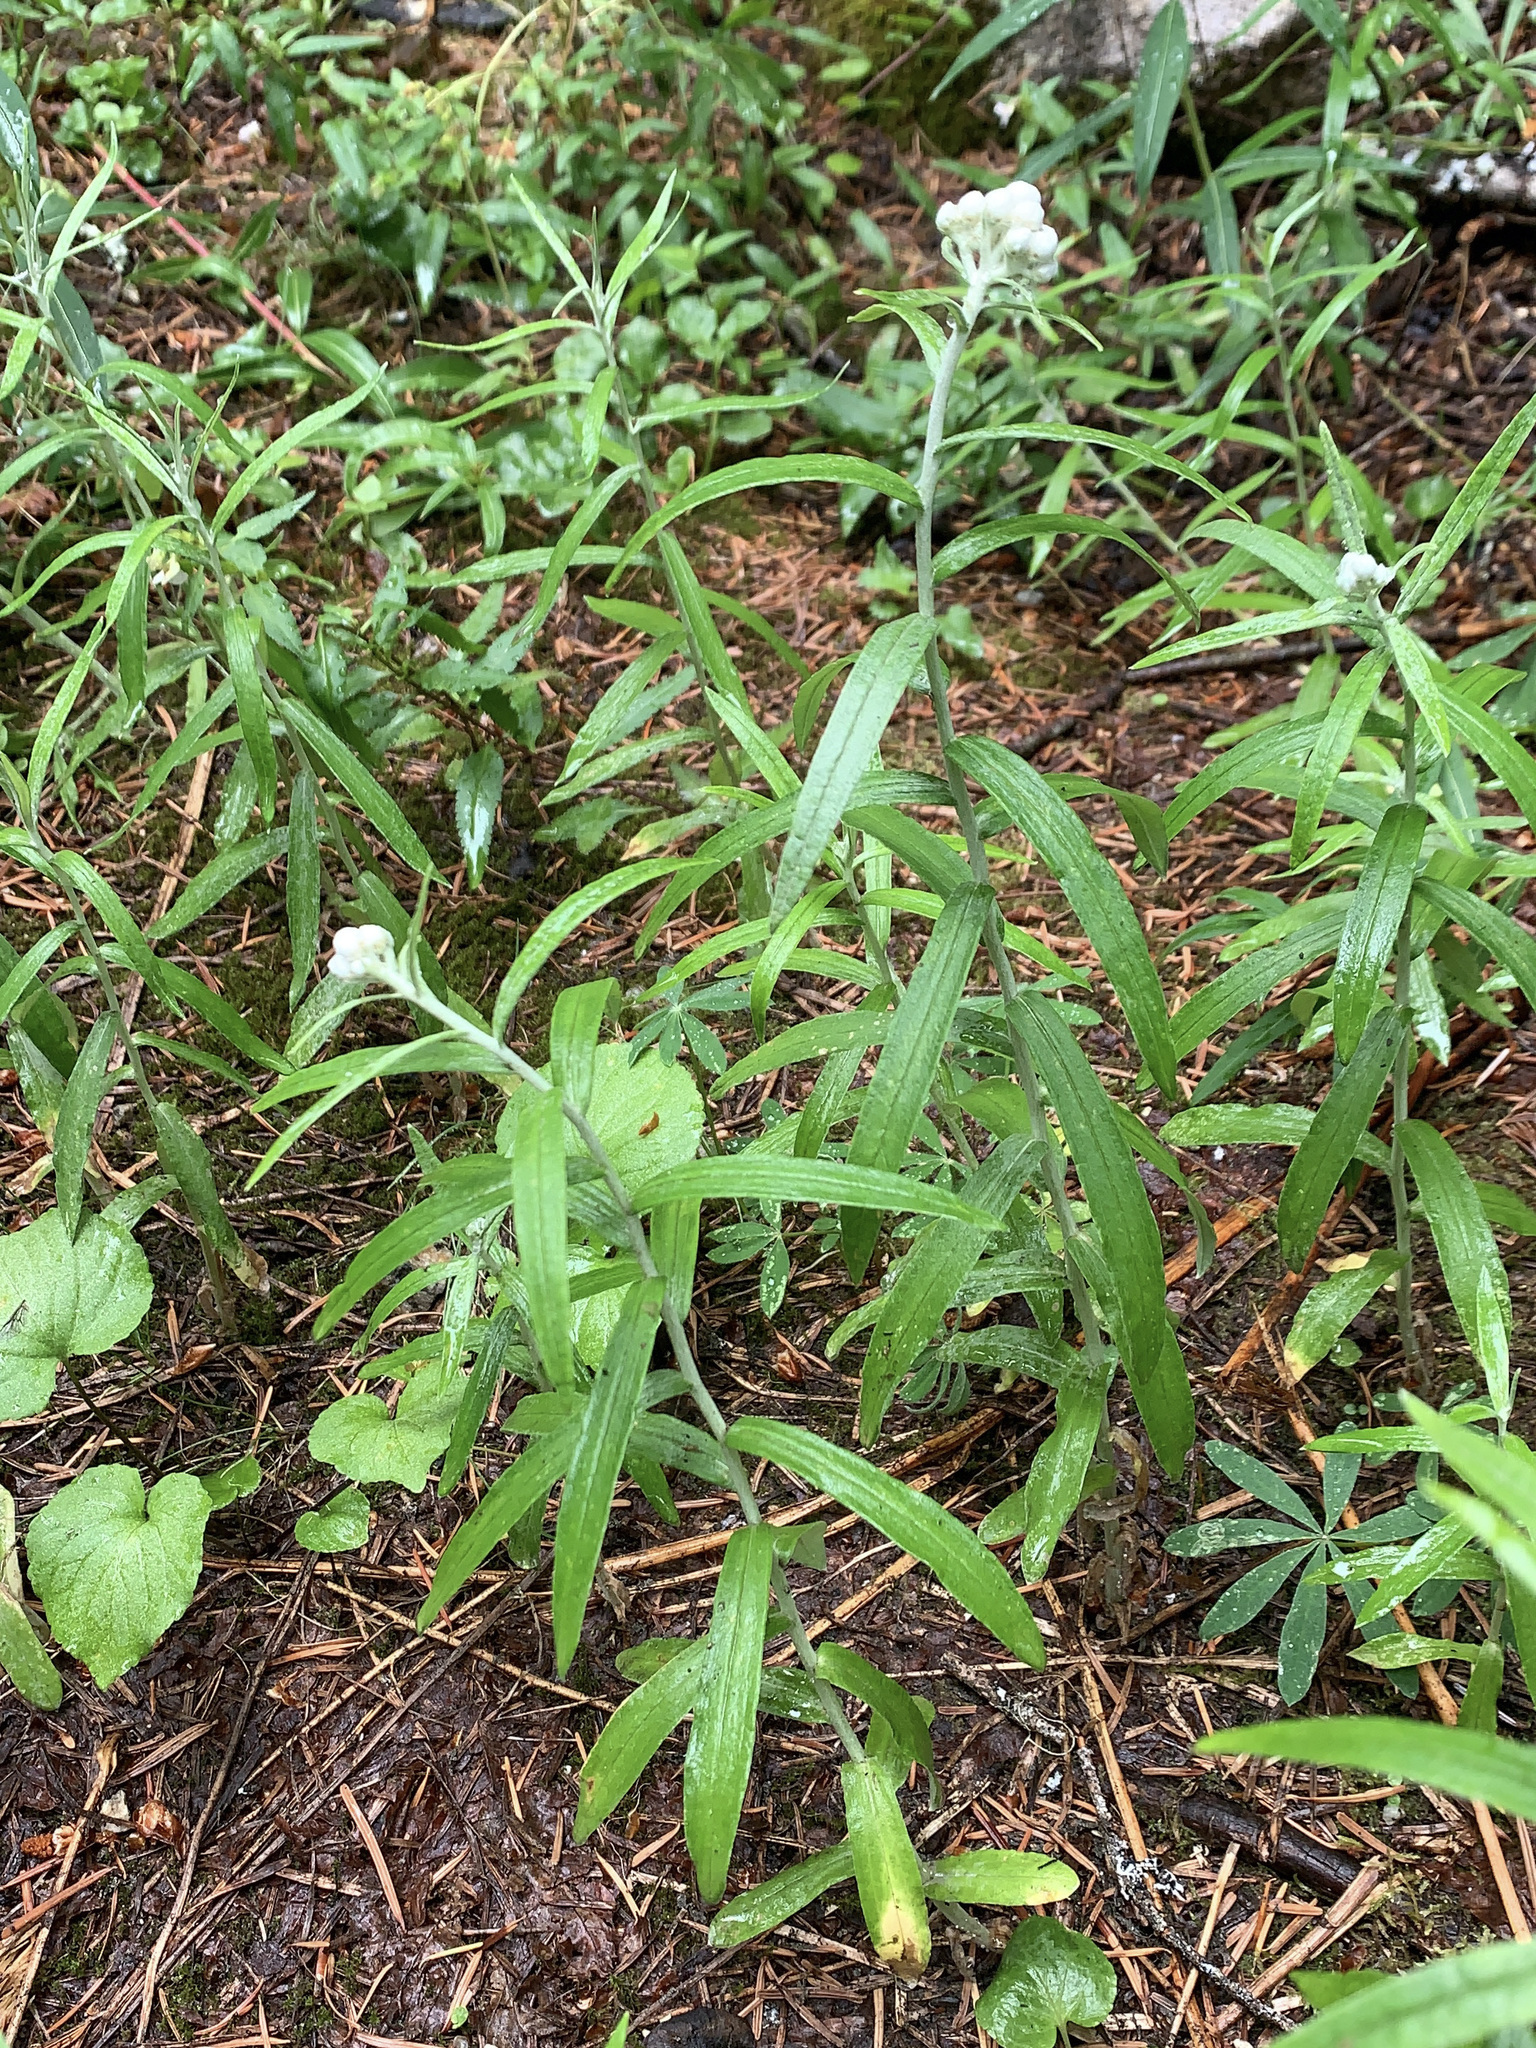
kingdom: Plantae
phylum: Tracheophyta
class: Magnoliopsida
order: Asterales
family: Asteraceae
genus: Anaphalis
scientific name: Anaphalis margaritacea
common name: Pearly everlasting
